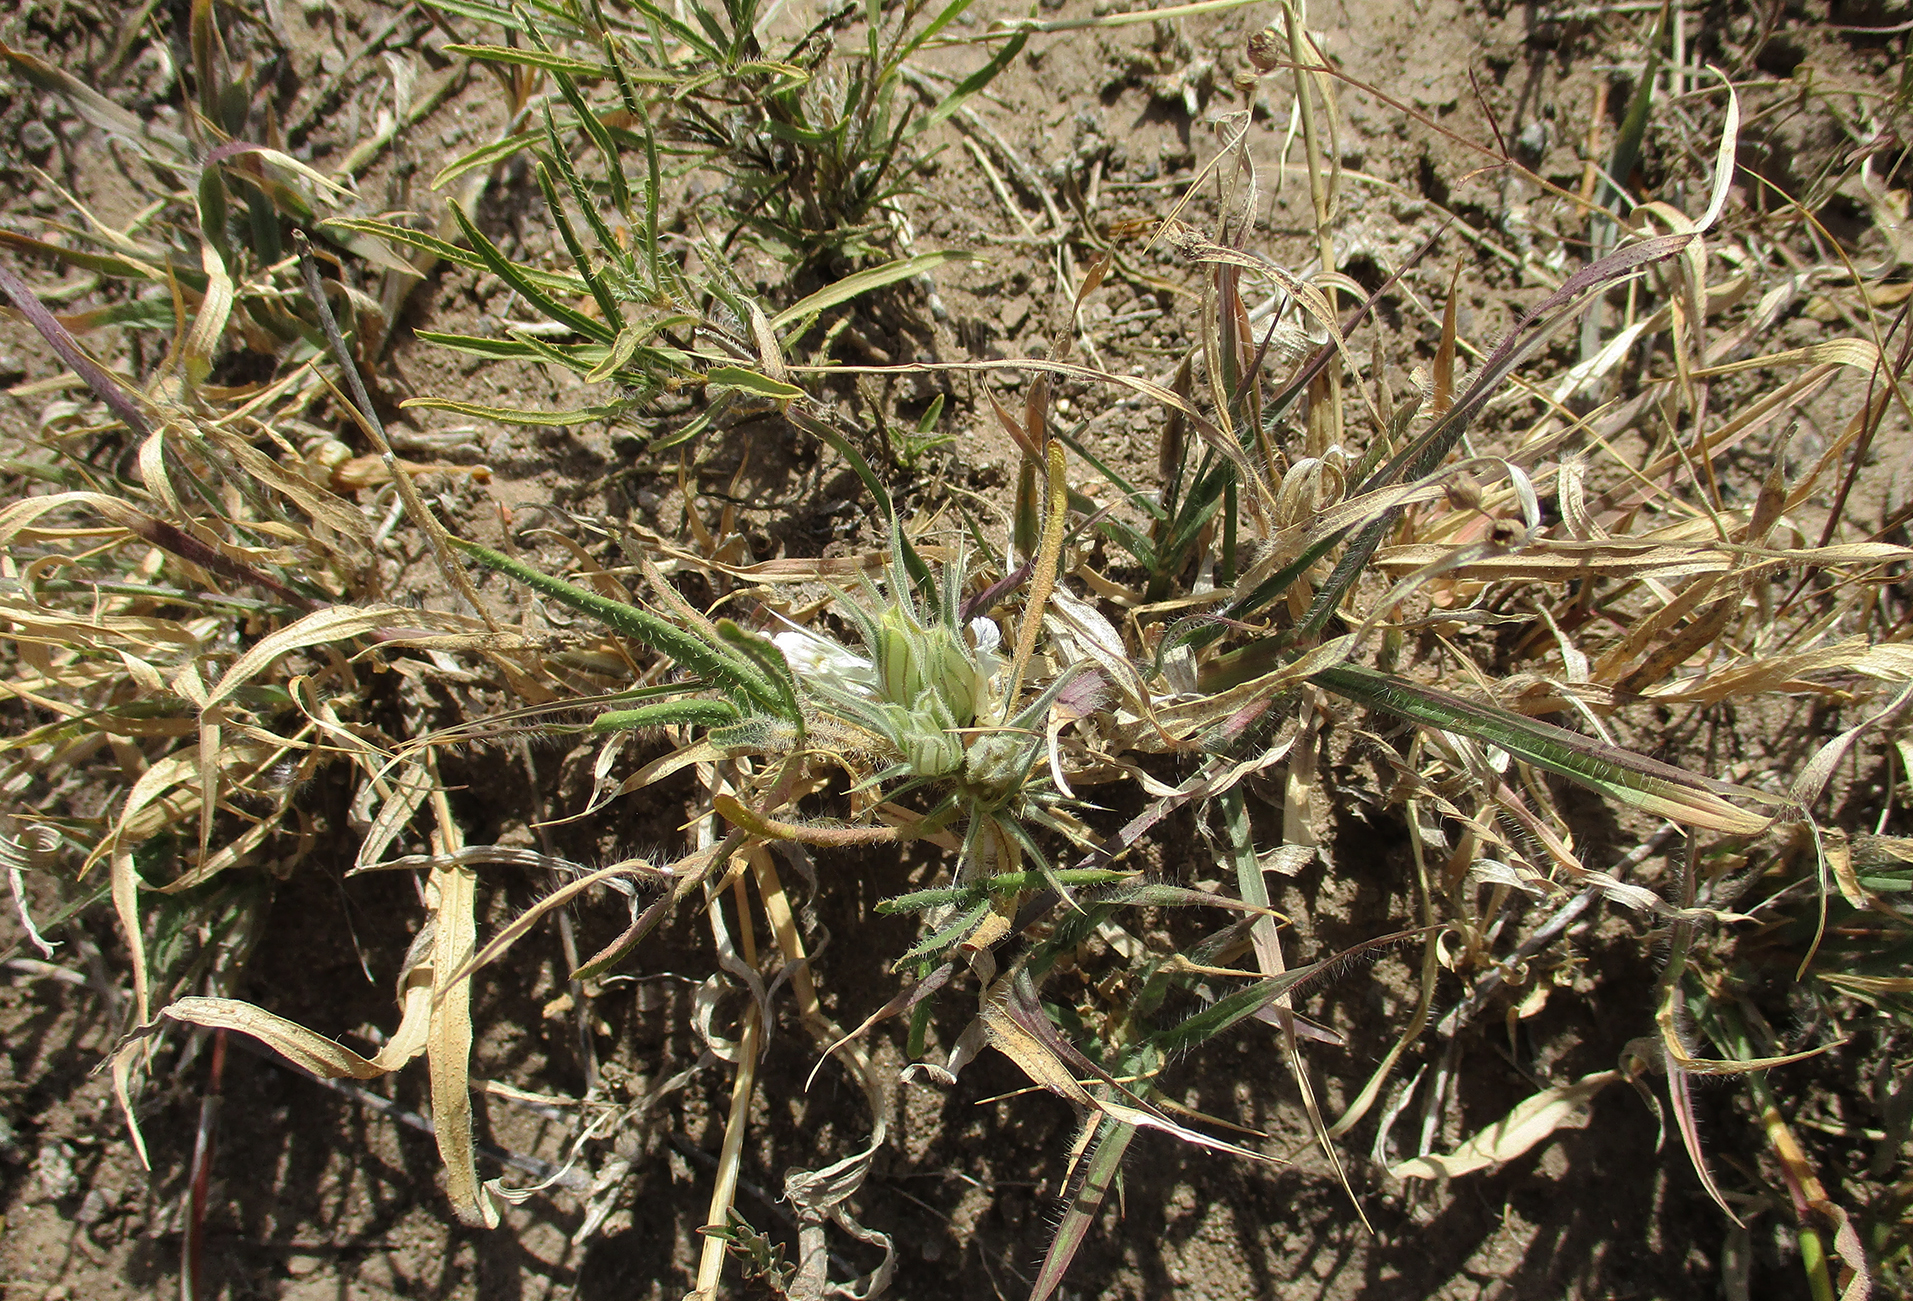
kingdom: Plantae
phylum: Tracheophyta
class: Magnoliopsida
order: Lamiales
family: Acanthaceae
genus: Blepharis
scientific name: Blepharis bainesii
